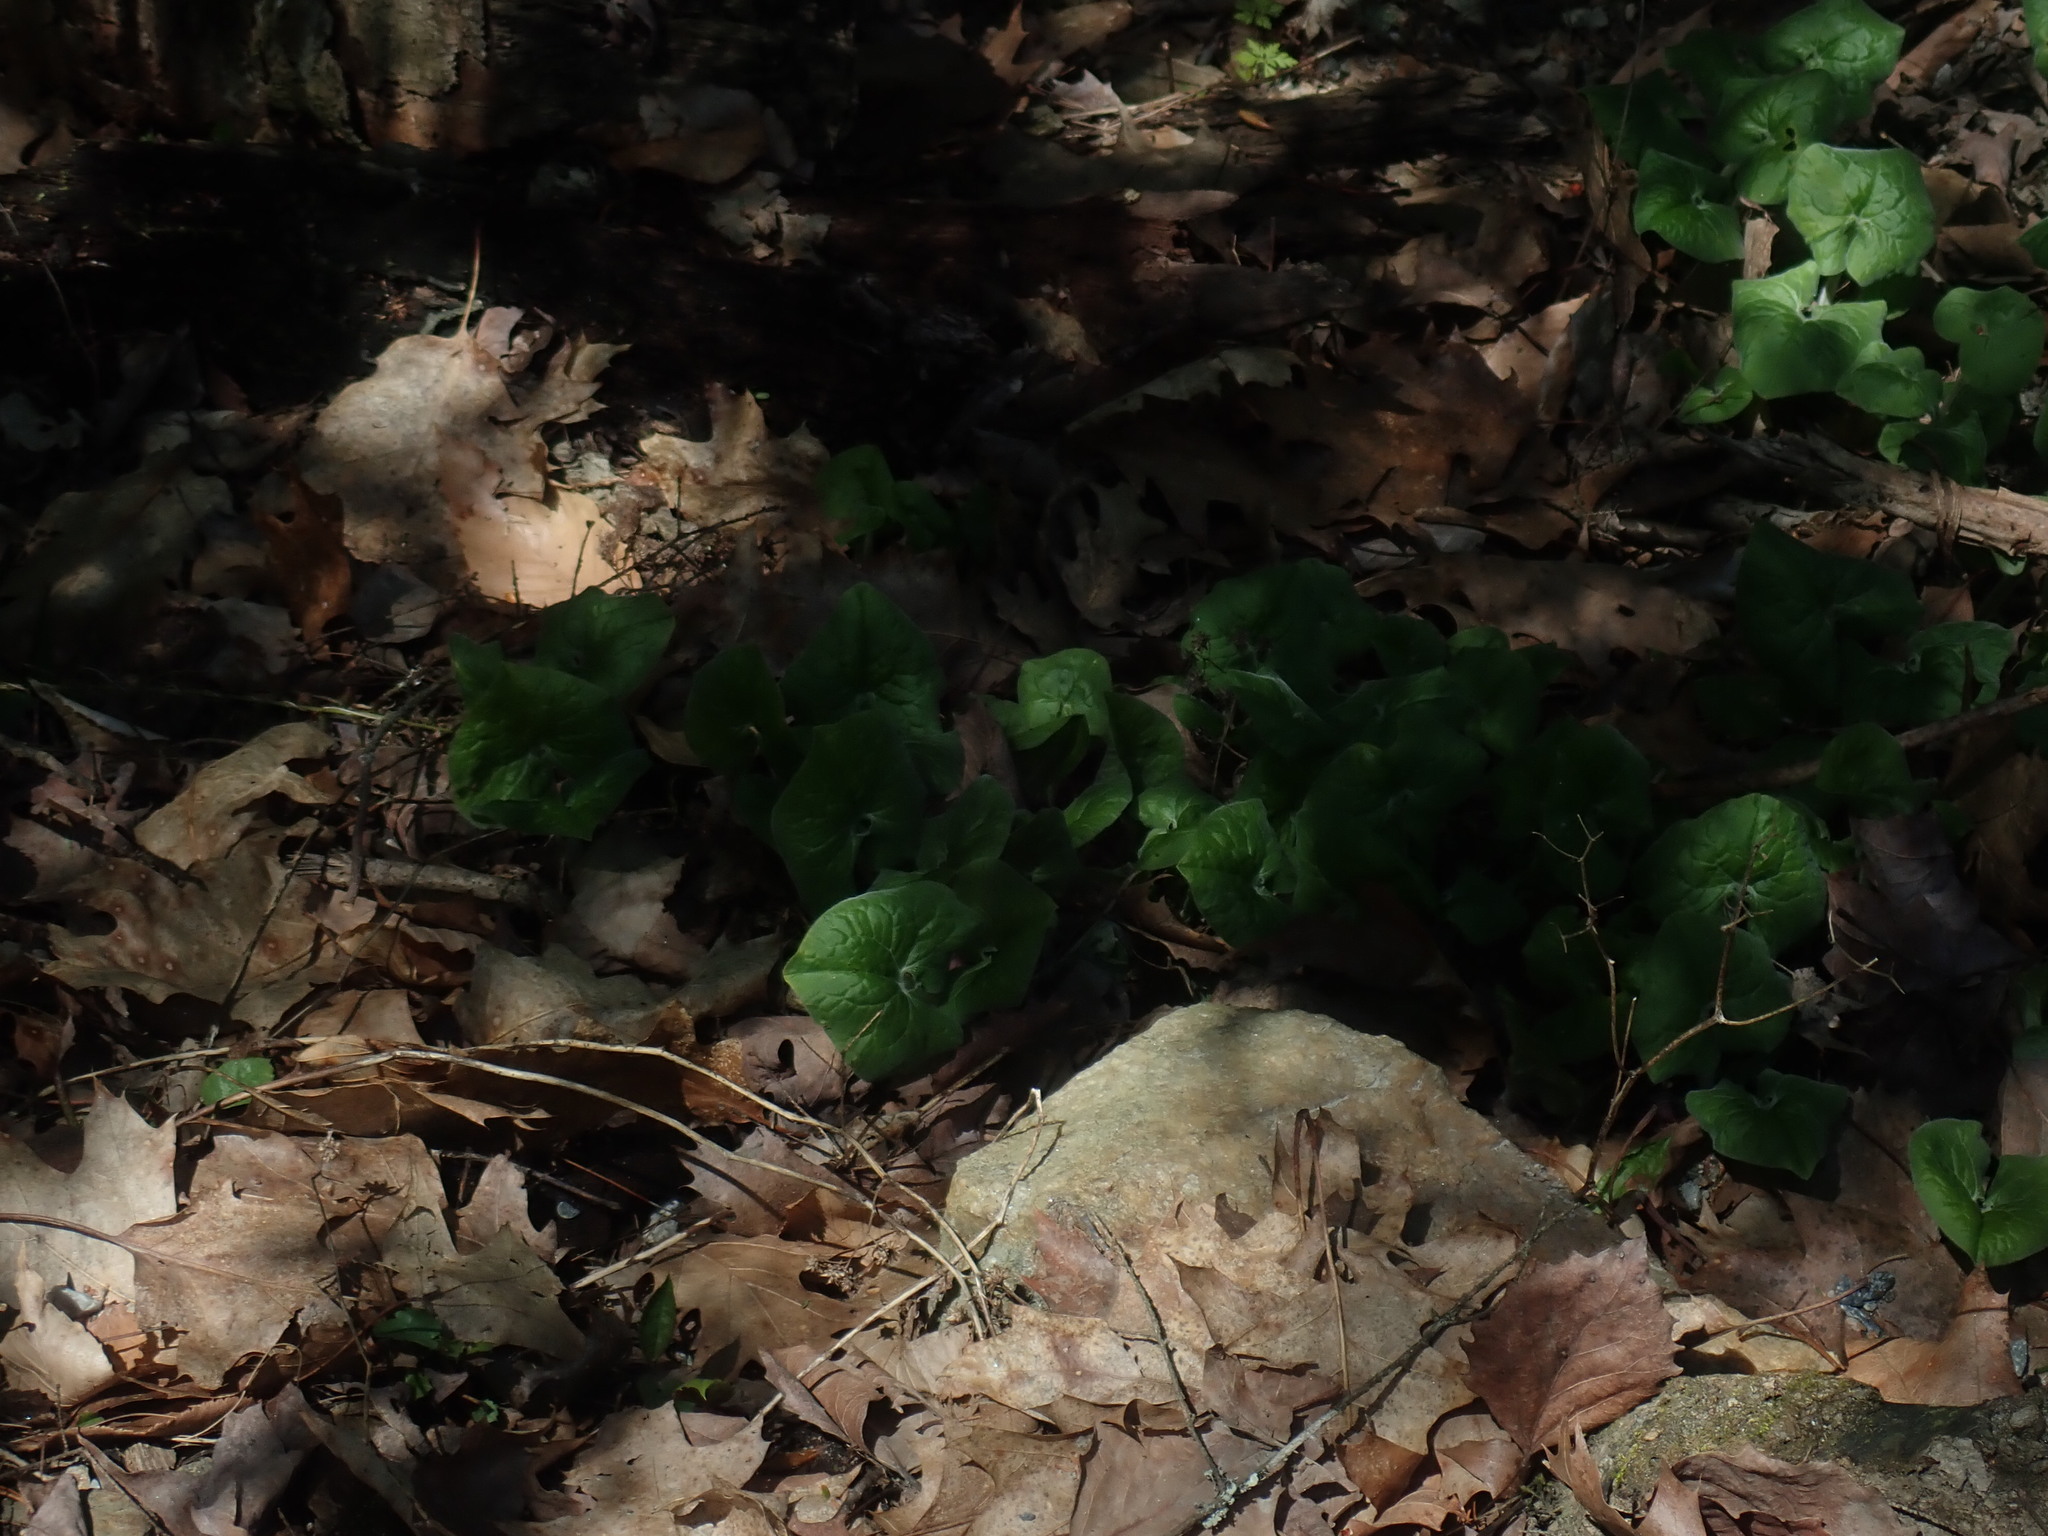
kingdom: Plantae
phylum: Tracheophyta
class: Magnoliopsida
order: Piperales
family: Aristolochiaceae
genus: Asarum
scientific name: Asarum canadense
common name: Wild ginger
